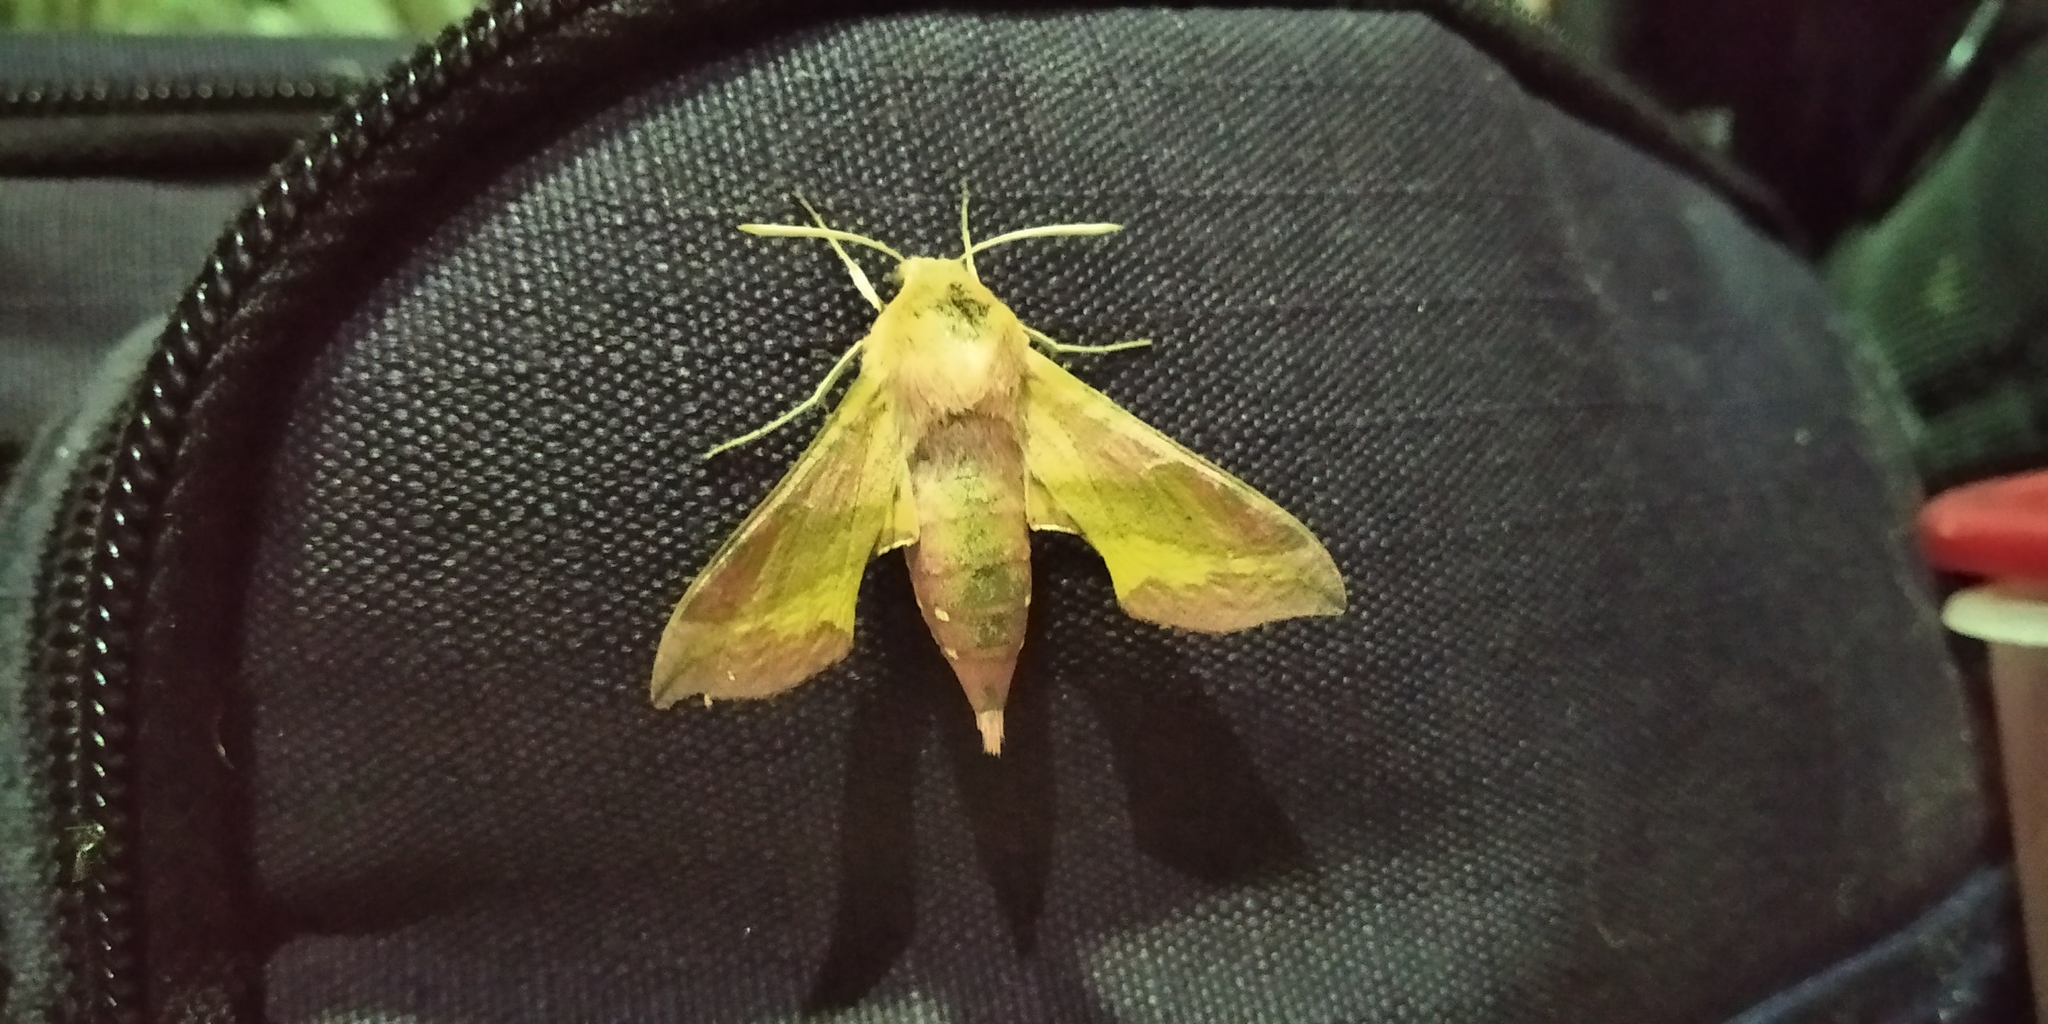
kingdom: Animalia
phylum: Arthropoda
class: Insecta
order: Lepidoptera
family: Sphingidae
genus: Deilephila
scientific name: Deilephila porcellus
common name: Small elephant hawk-moth
